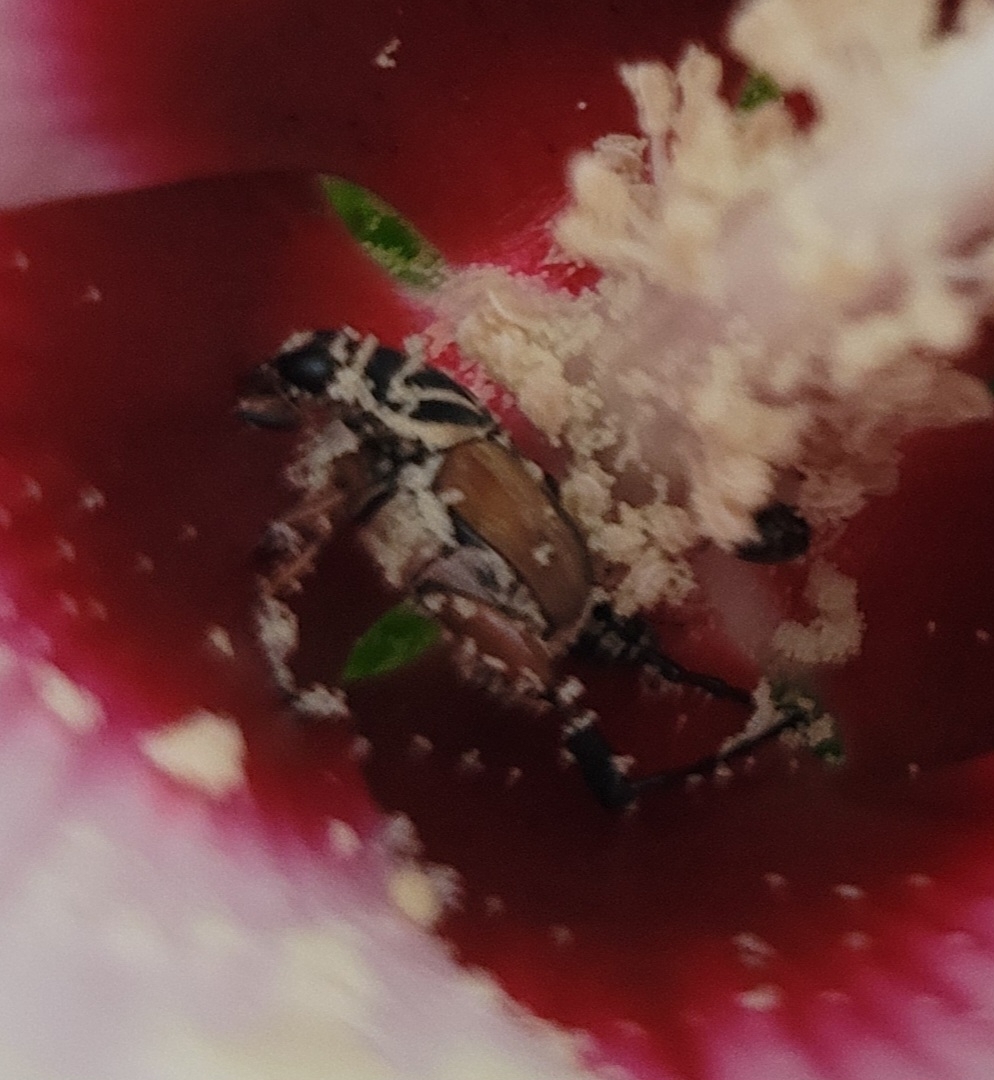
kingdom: Animalia
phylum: Arthropoda
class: Insecta
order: Coleoptera
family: Scarabaeidae
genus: Trigonopeltastes
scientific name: Trigonopeltastes delta
